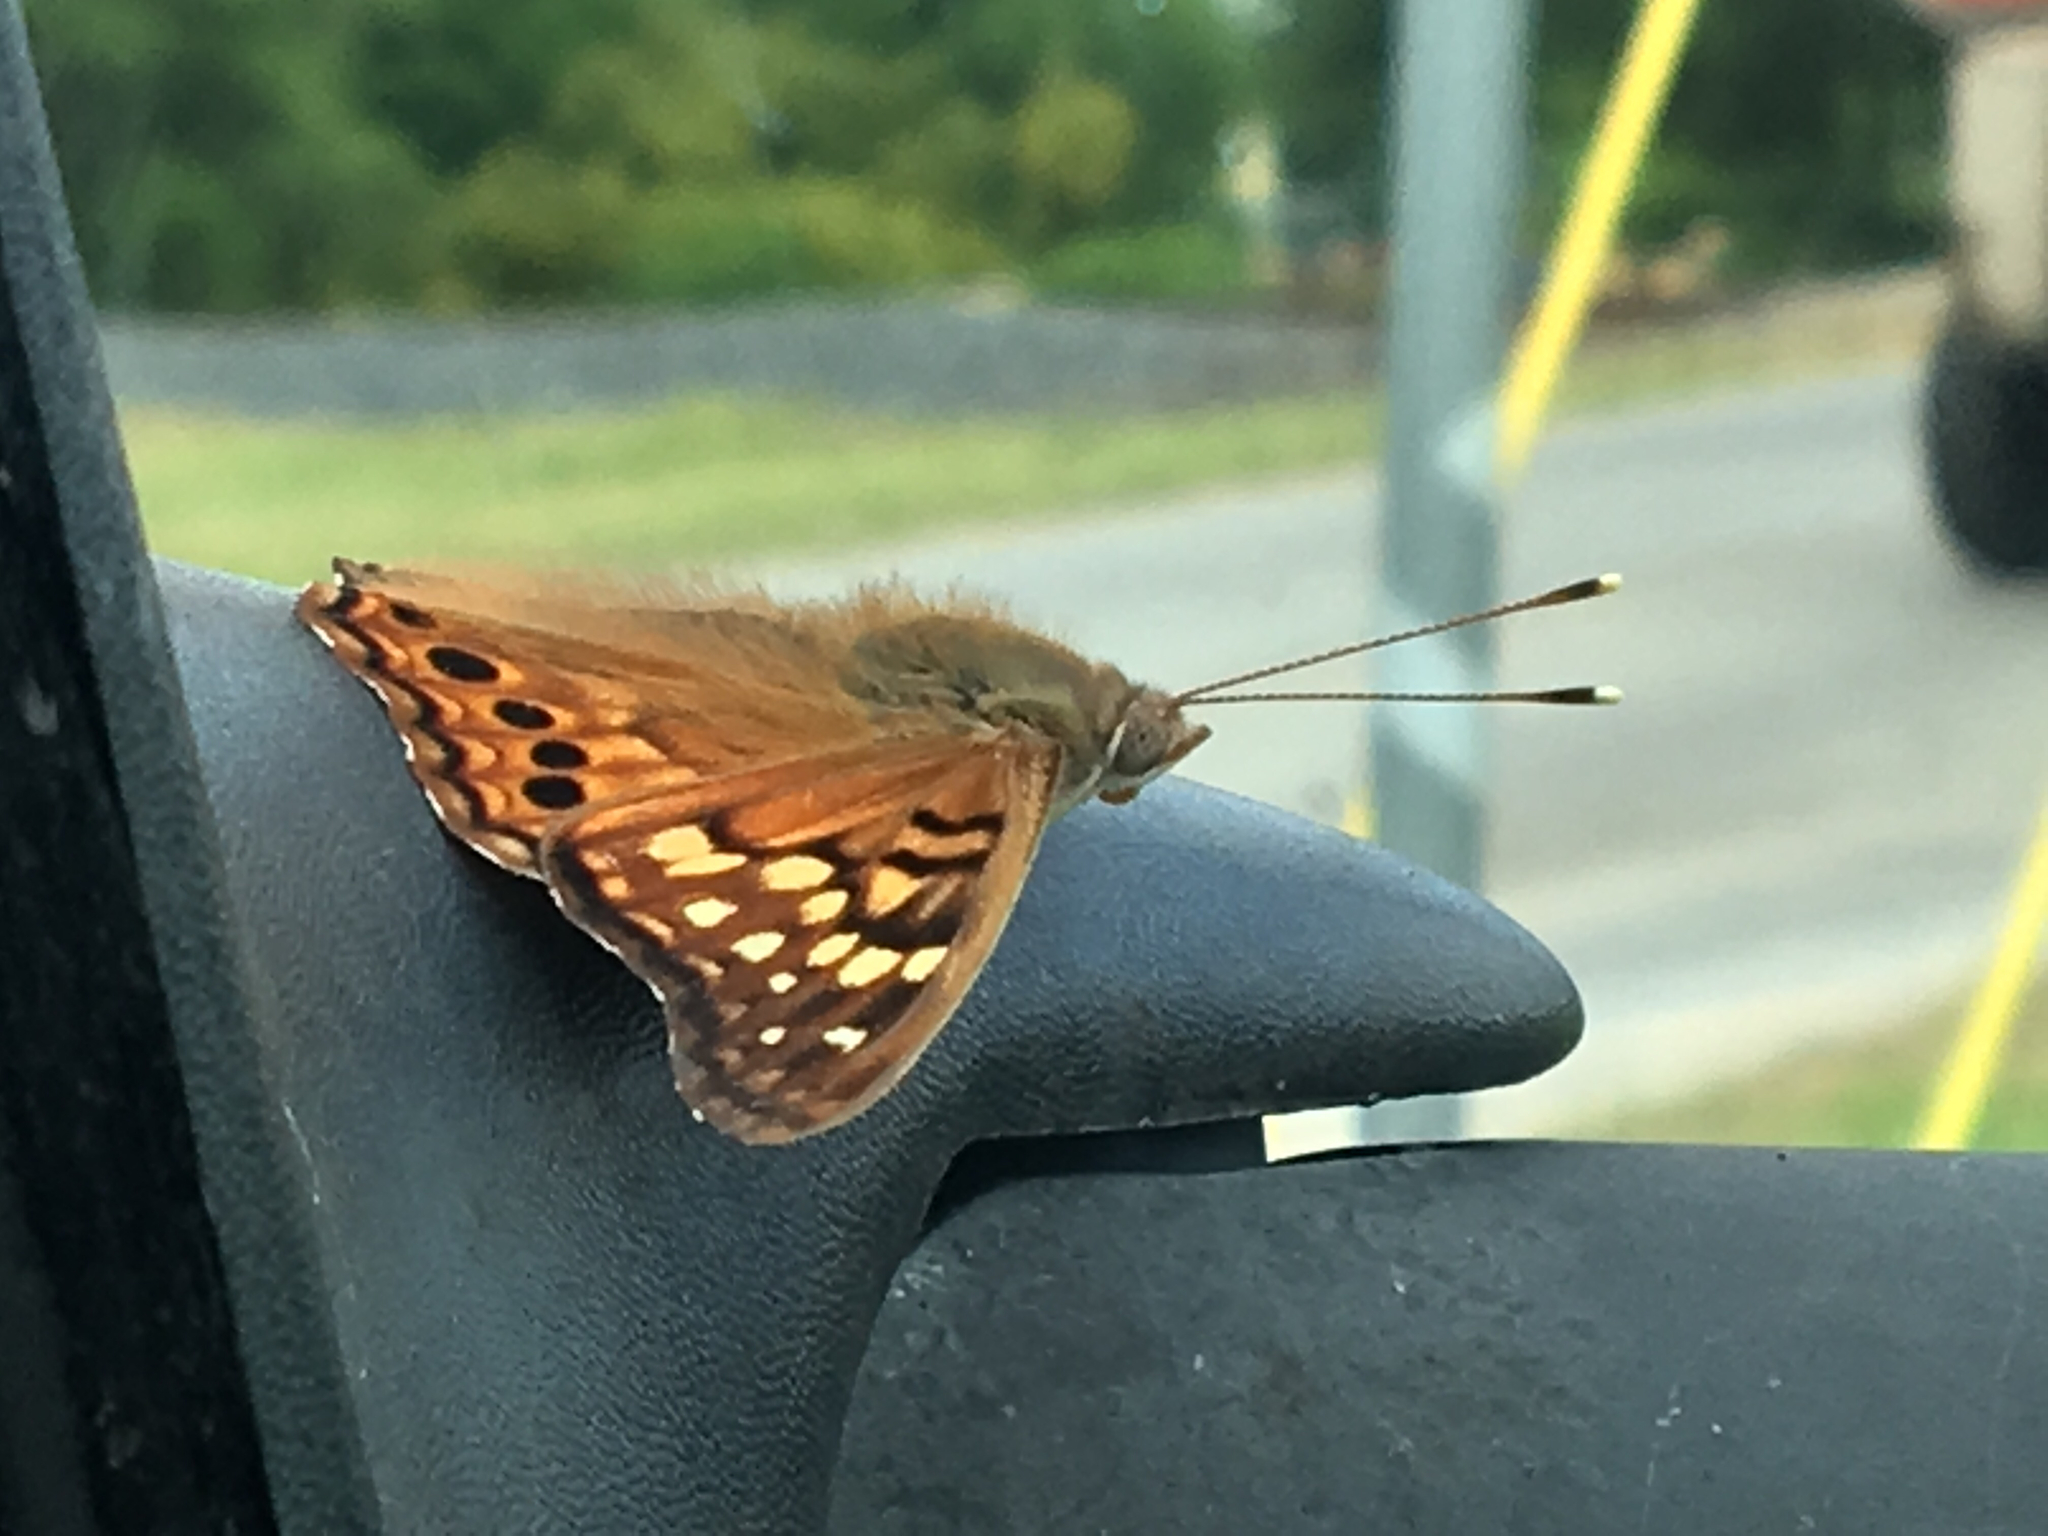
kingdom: Animalia
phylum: Arthropoda
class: Insecta
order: Lepidoptera
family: Nymphalidae
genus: Asterocampa
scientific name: Asterocampa clyton
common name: Tawny emperor
